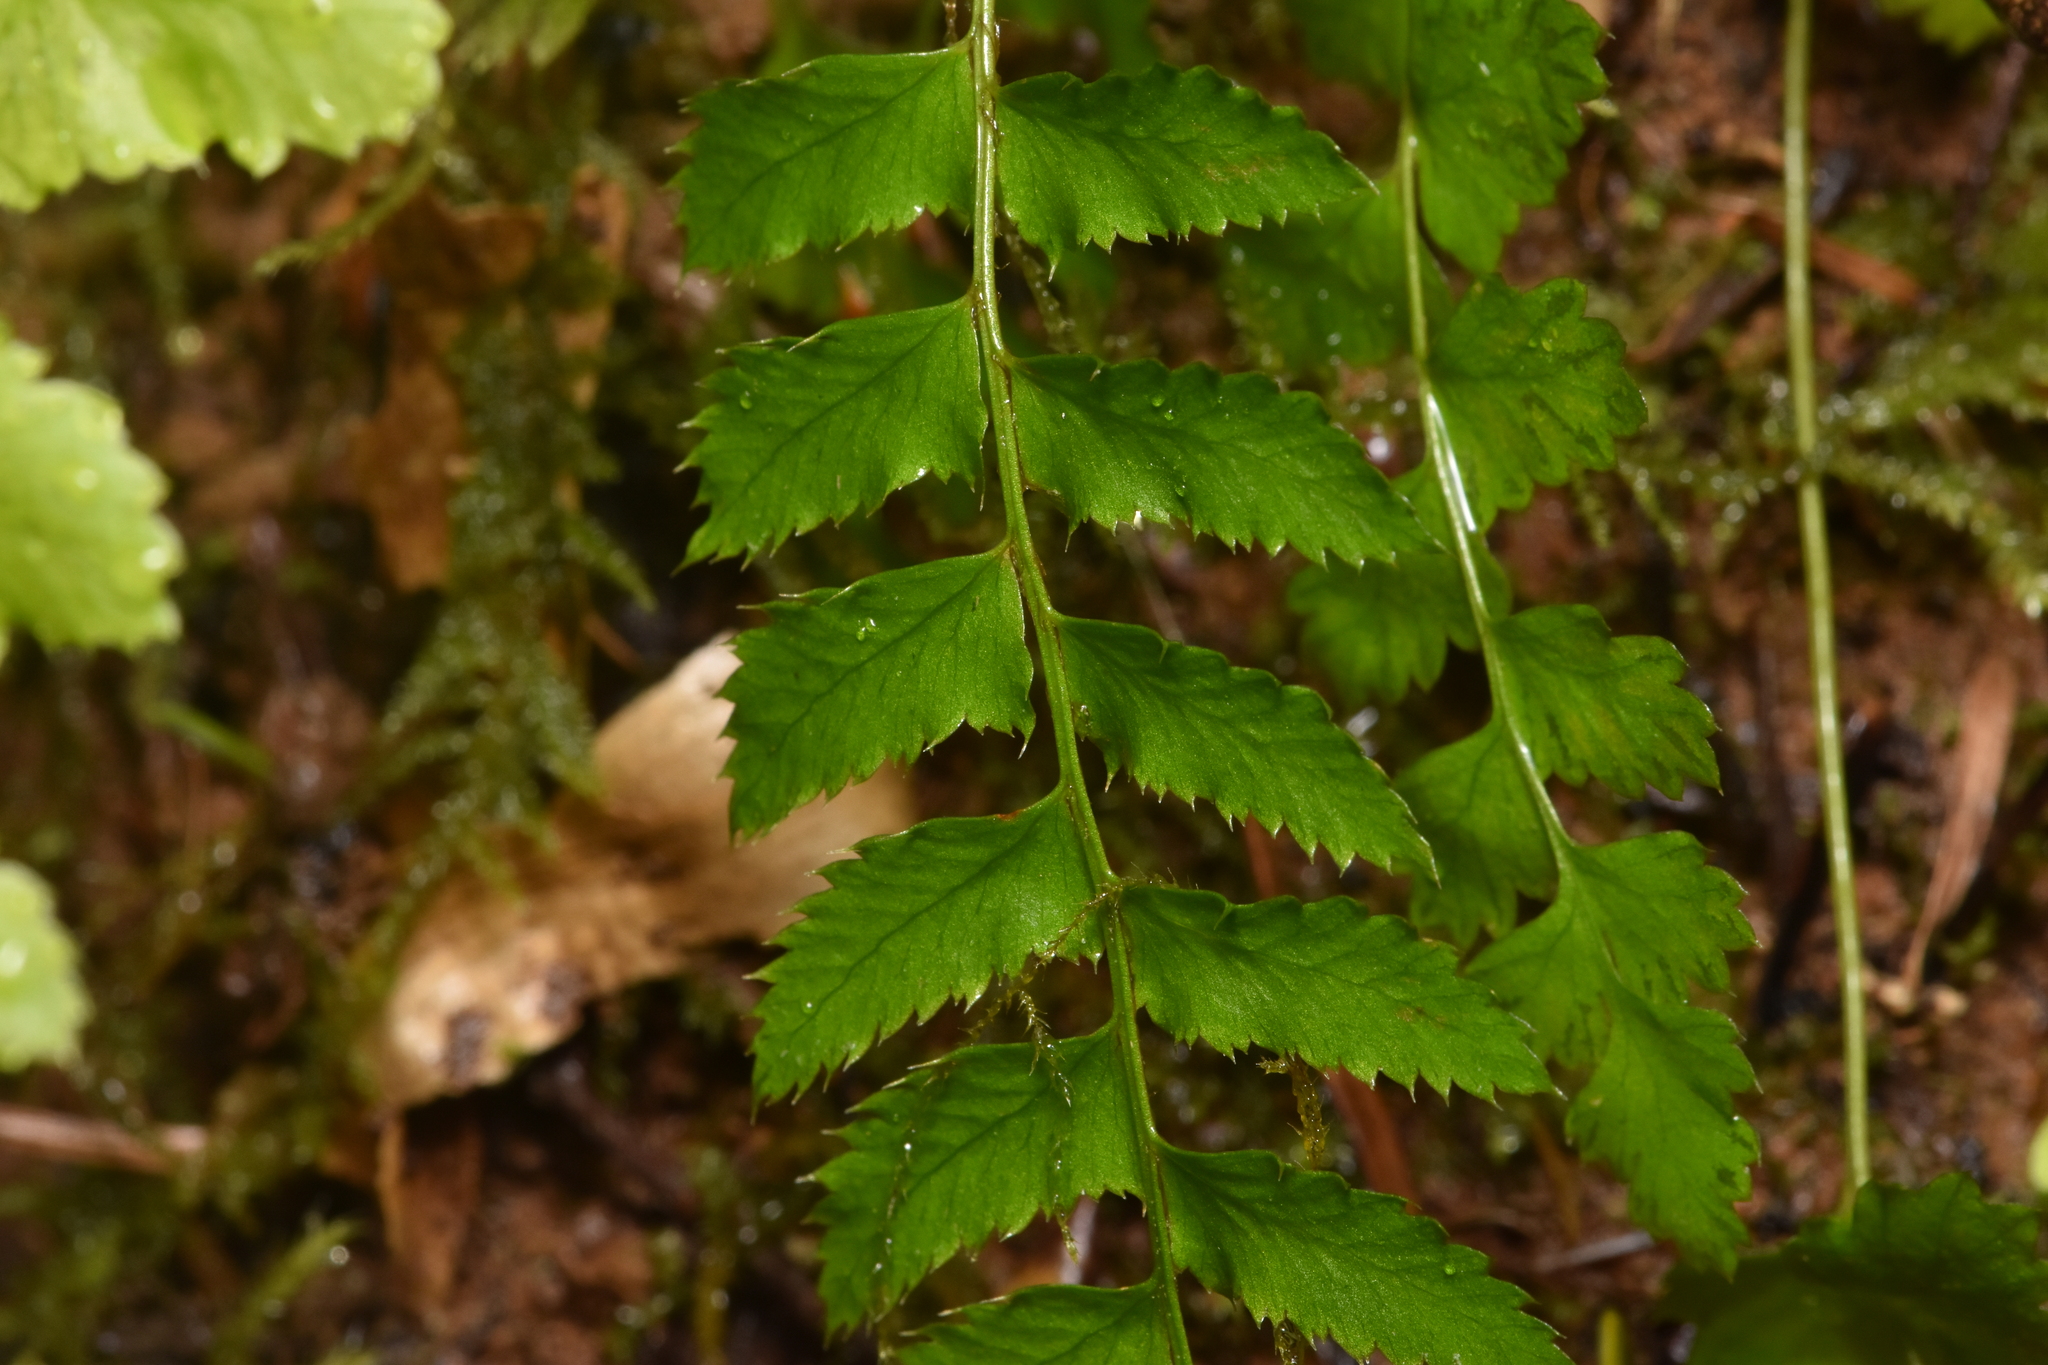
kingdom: Plantae
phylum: Tracheophyta
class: Polypodiopsida
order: Polypodiales
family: Dryopteridaceae
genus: Polystichum
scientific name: Polystichum munitum
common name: Western sword-fern
